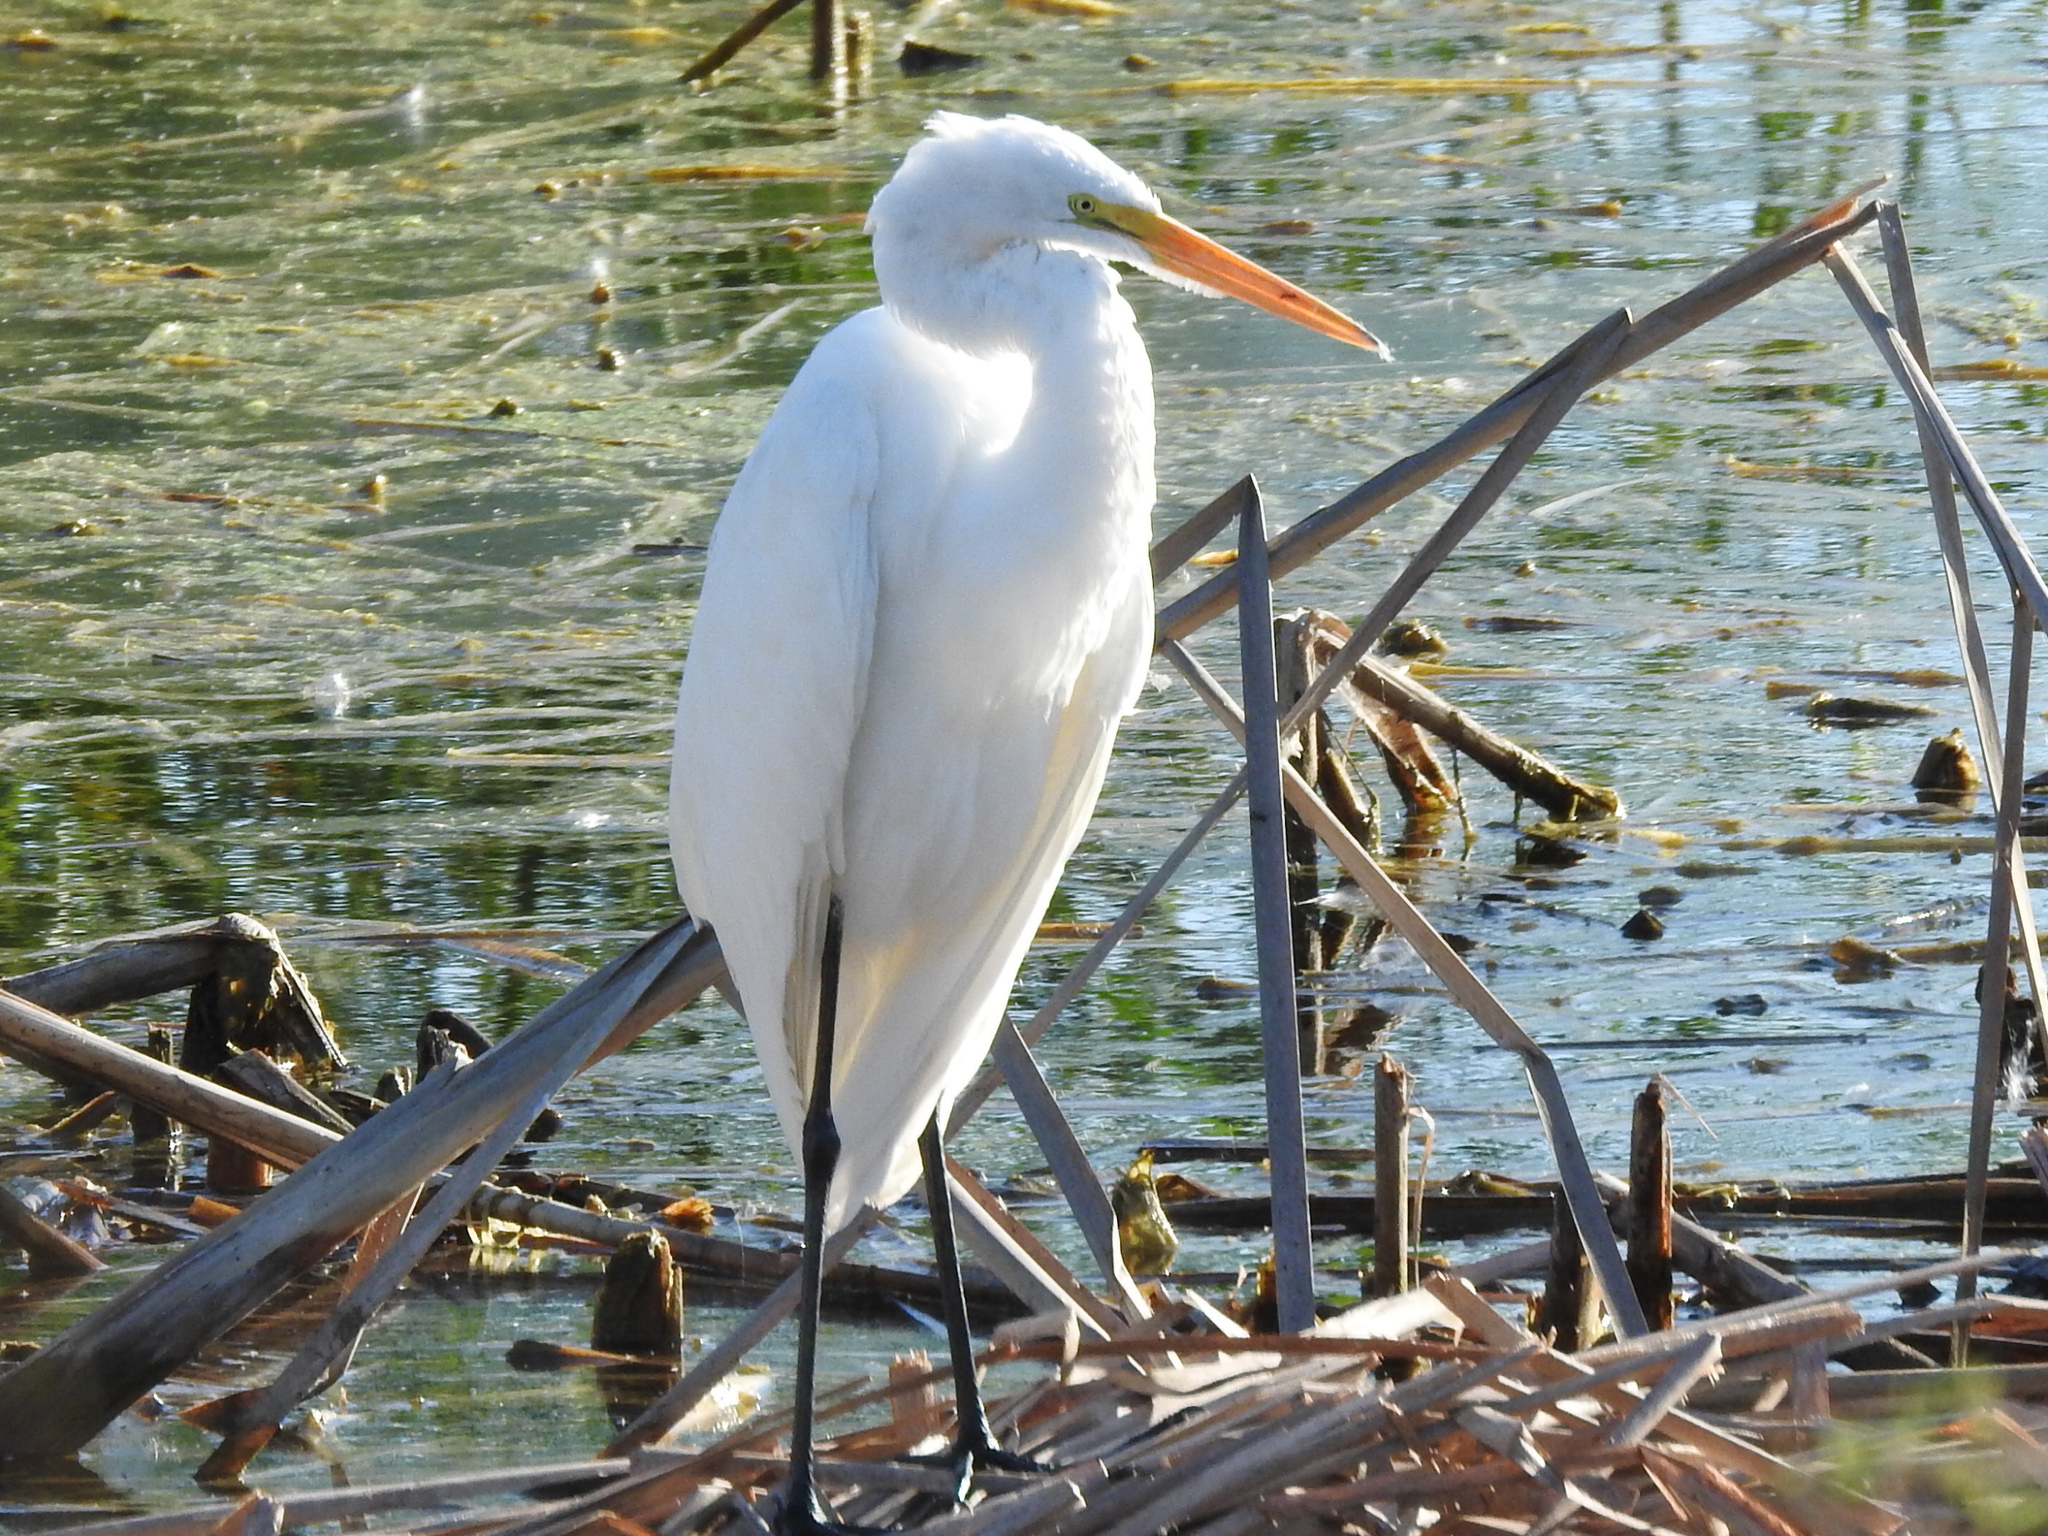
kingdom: Animalia
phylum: Chordata
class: Aves
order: Pelecaniformes
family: Ardeidae
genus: Ardea
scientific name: Ardea alba
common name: Great egret
